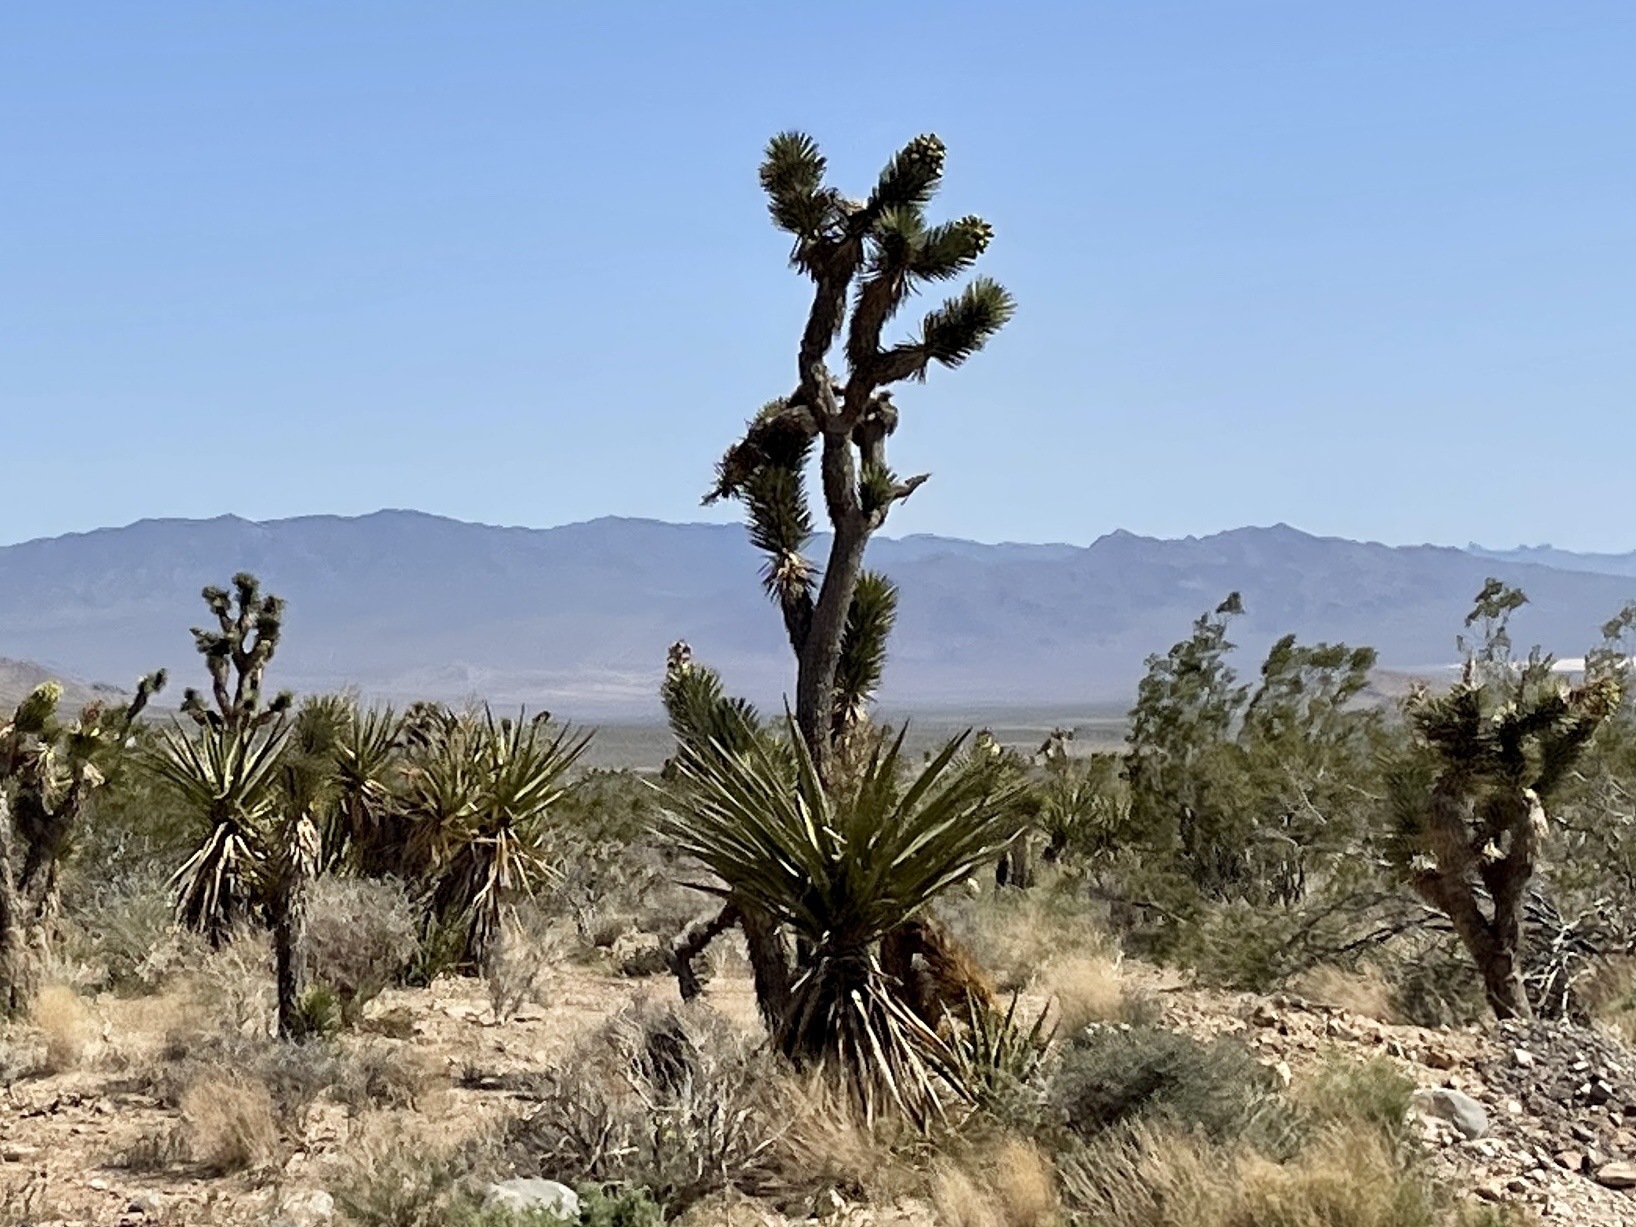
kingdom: Plantae
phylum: Tracheophyta
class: Liliopsida
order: Asparagales
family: Asparagaceae
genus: Yucca
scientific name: Yucca brevifolia
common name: Joshua tree
